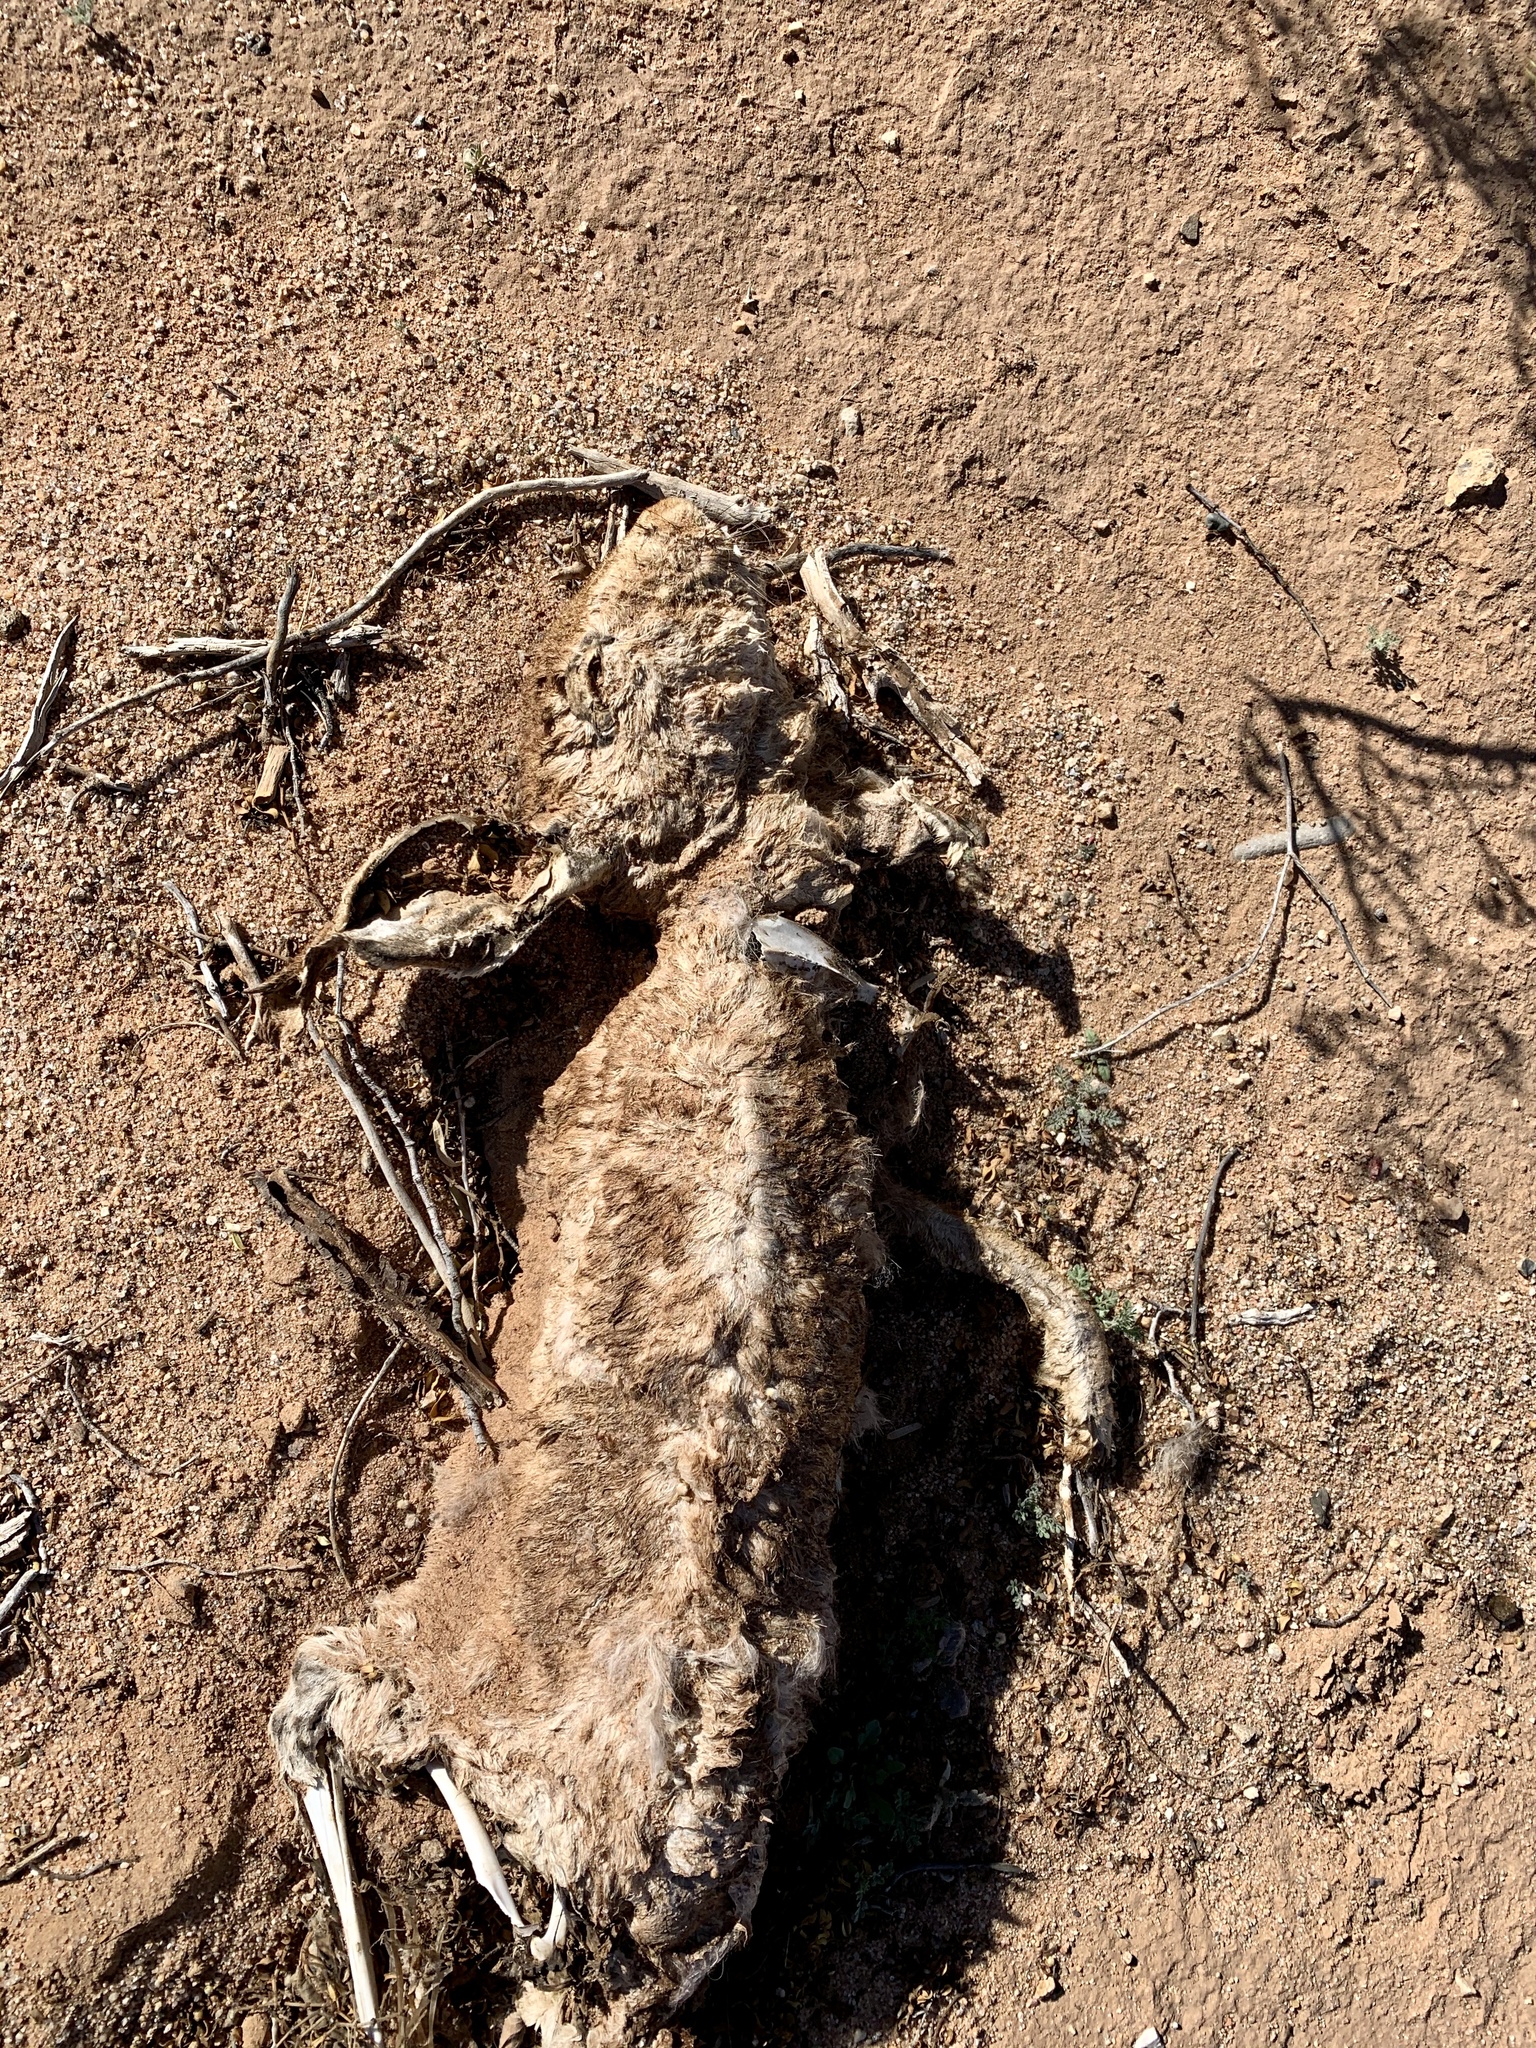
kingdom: Animalia
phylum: Chordata
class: Mammalia
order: Lagomorpha
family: Leporidae
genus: Lepus
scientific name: Lepus californicus
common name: Black-tailed jackrabbit
